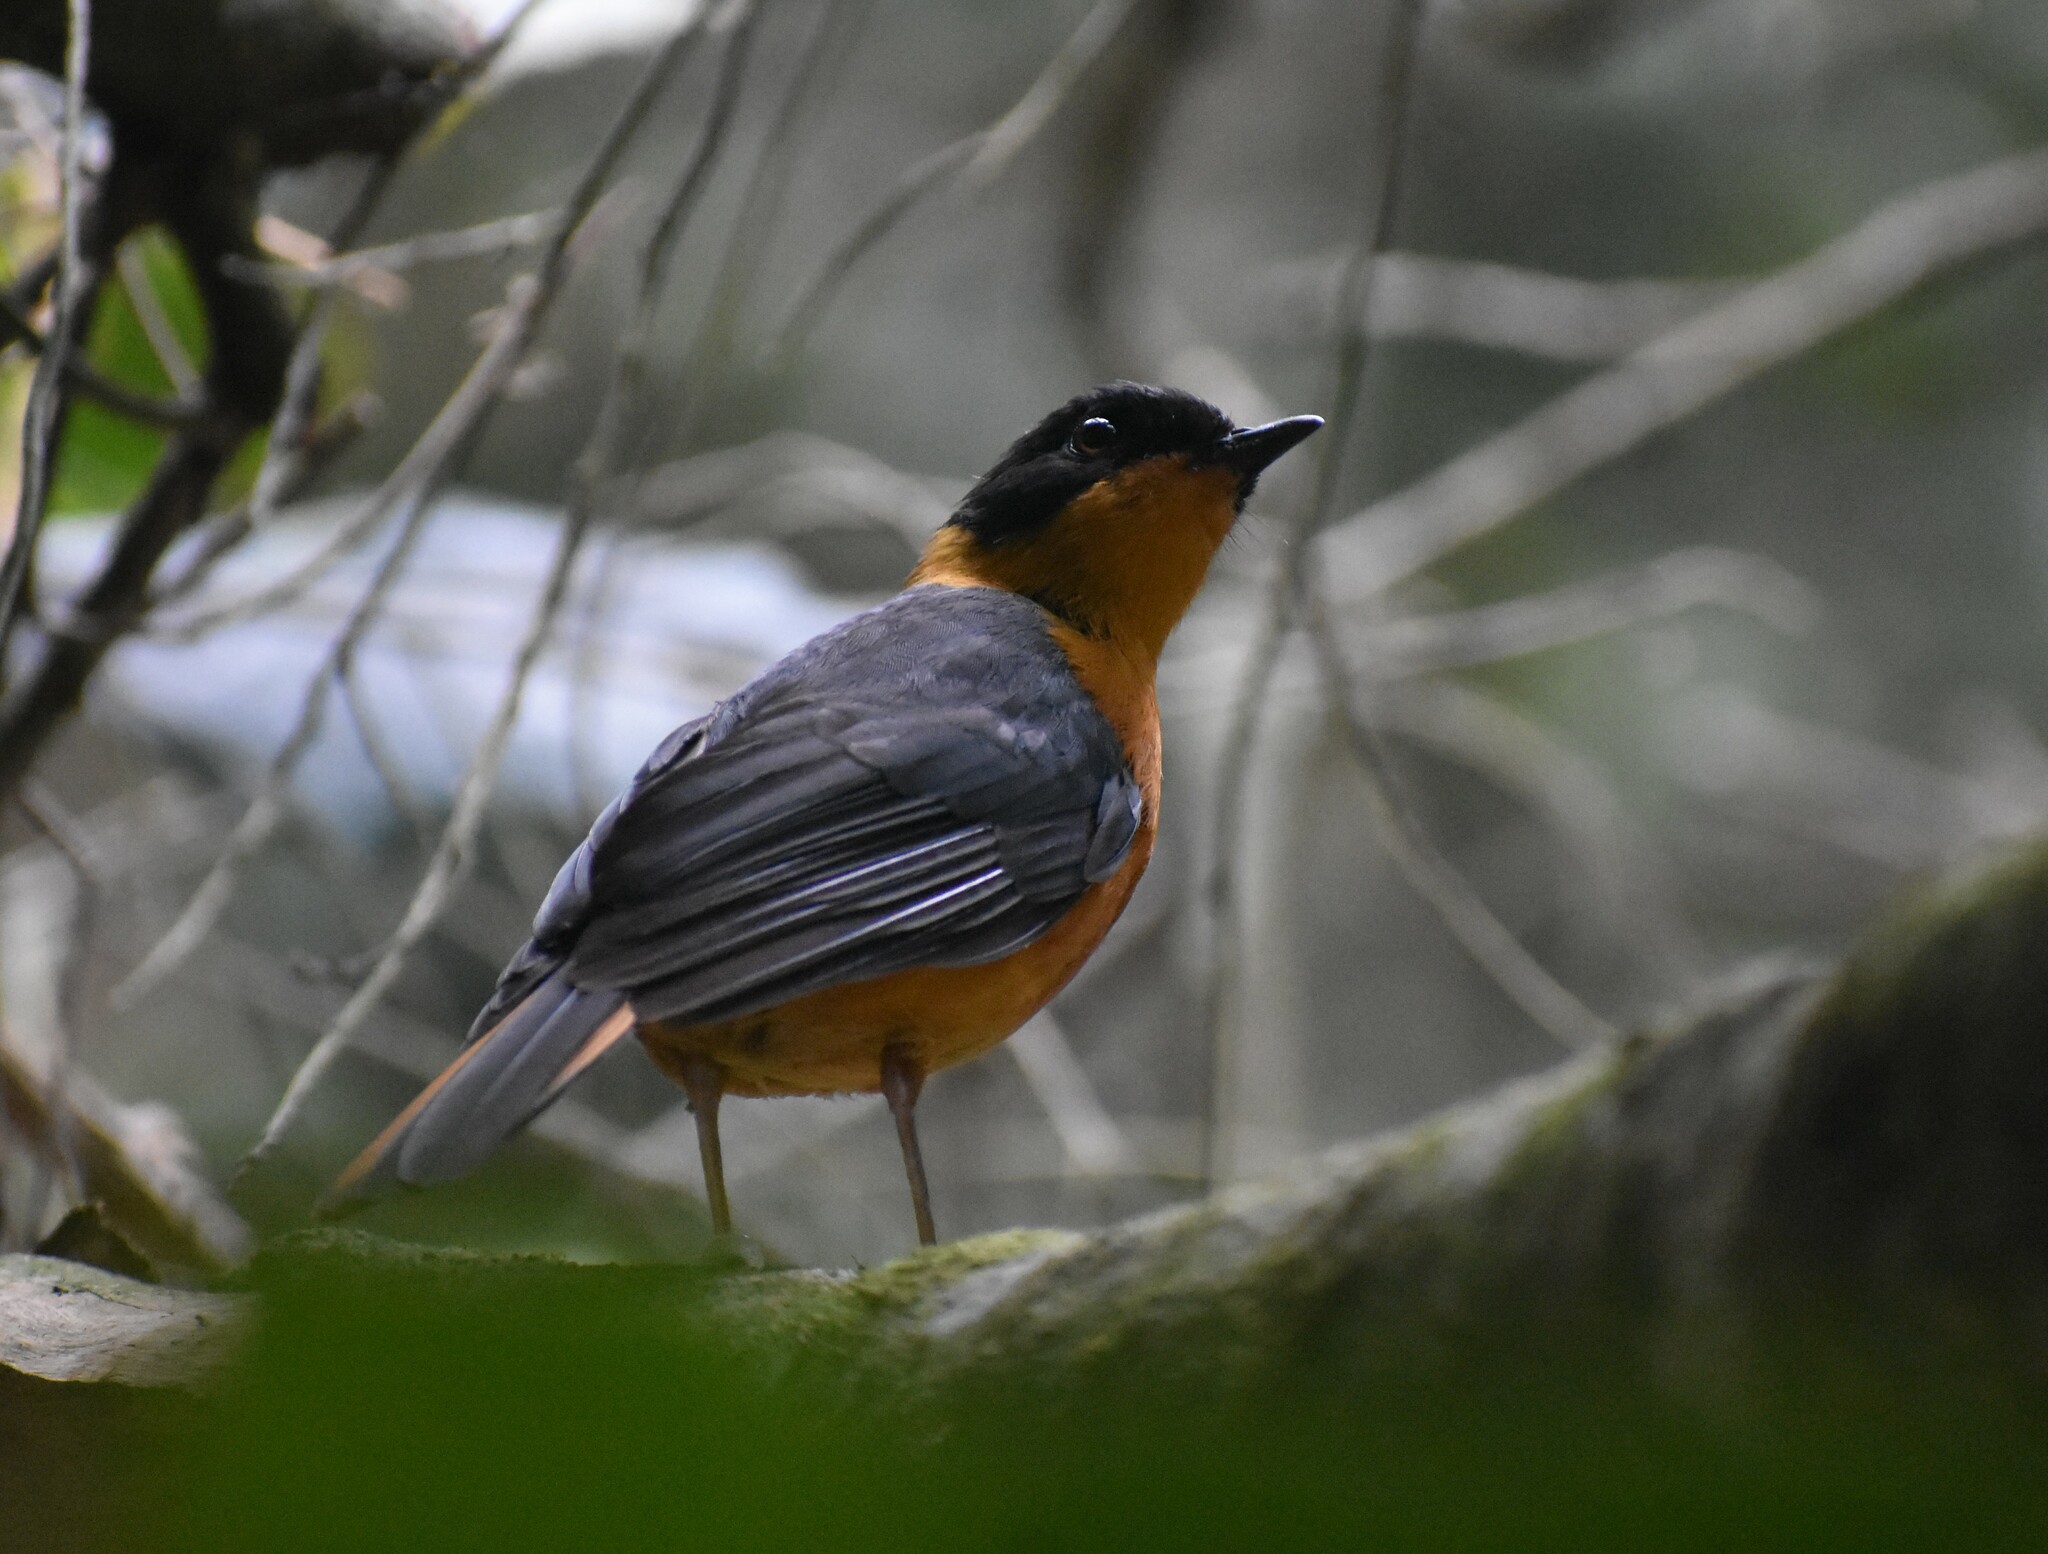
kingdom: Animalia
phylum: Chordata
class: Aves
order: Passeriformes
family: Muscicapidae
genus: Cossypha
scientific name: Cossypha dichroa
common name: Chorister robin-chat
